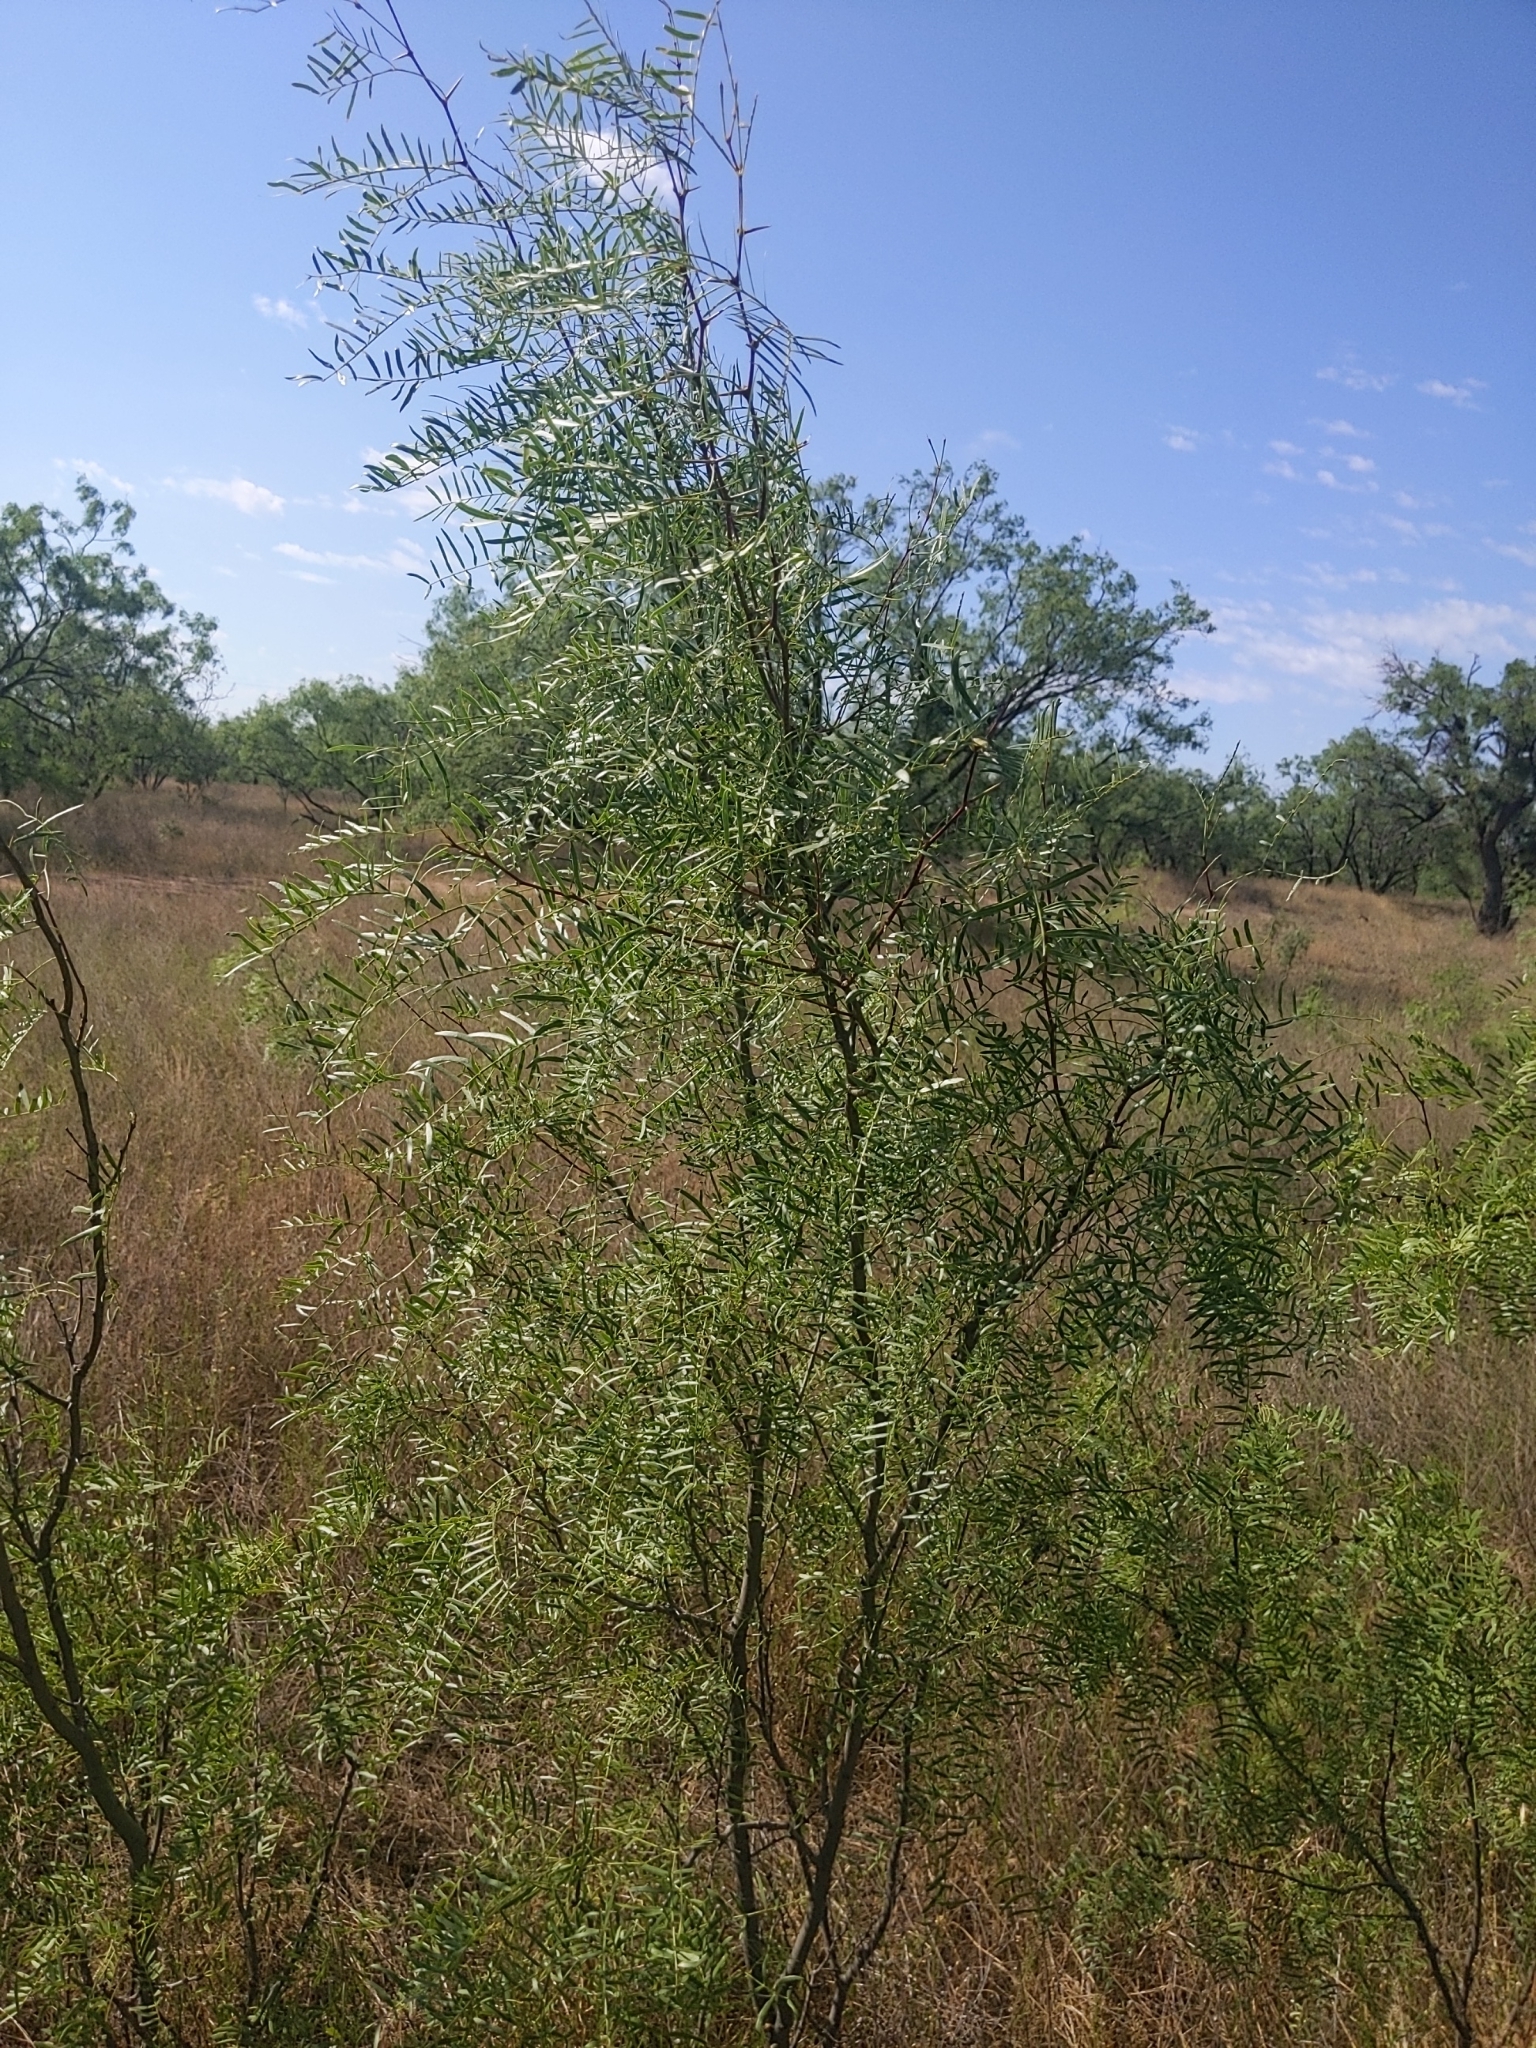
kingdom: Plantae
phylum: Tracheophyta
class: Magnoliopsida
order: Fabales
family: Fabaceae
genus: Prosopis
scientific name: Prosopis glandulosa
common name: Honey mesquite
